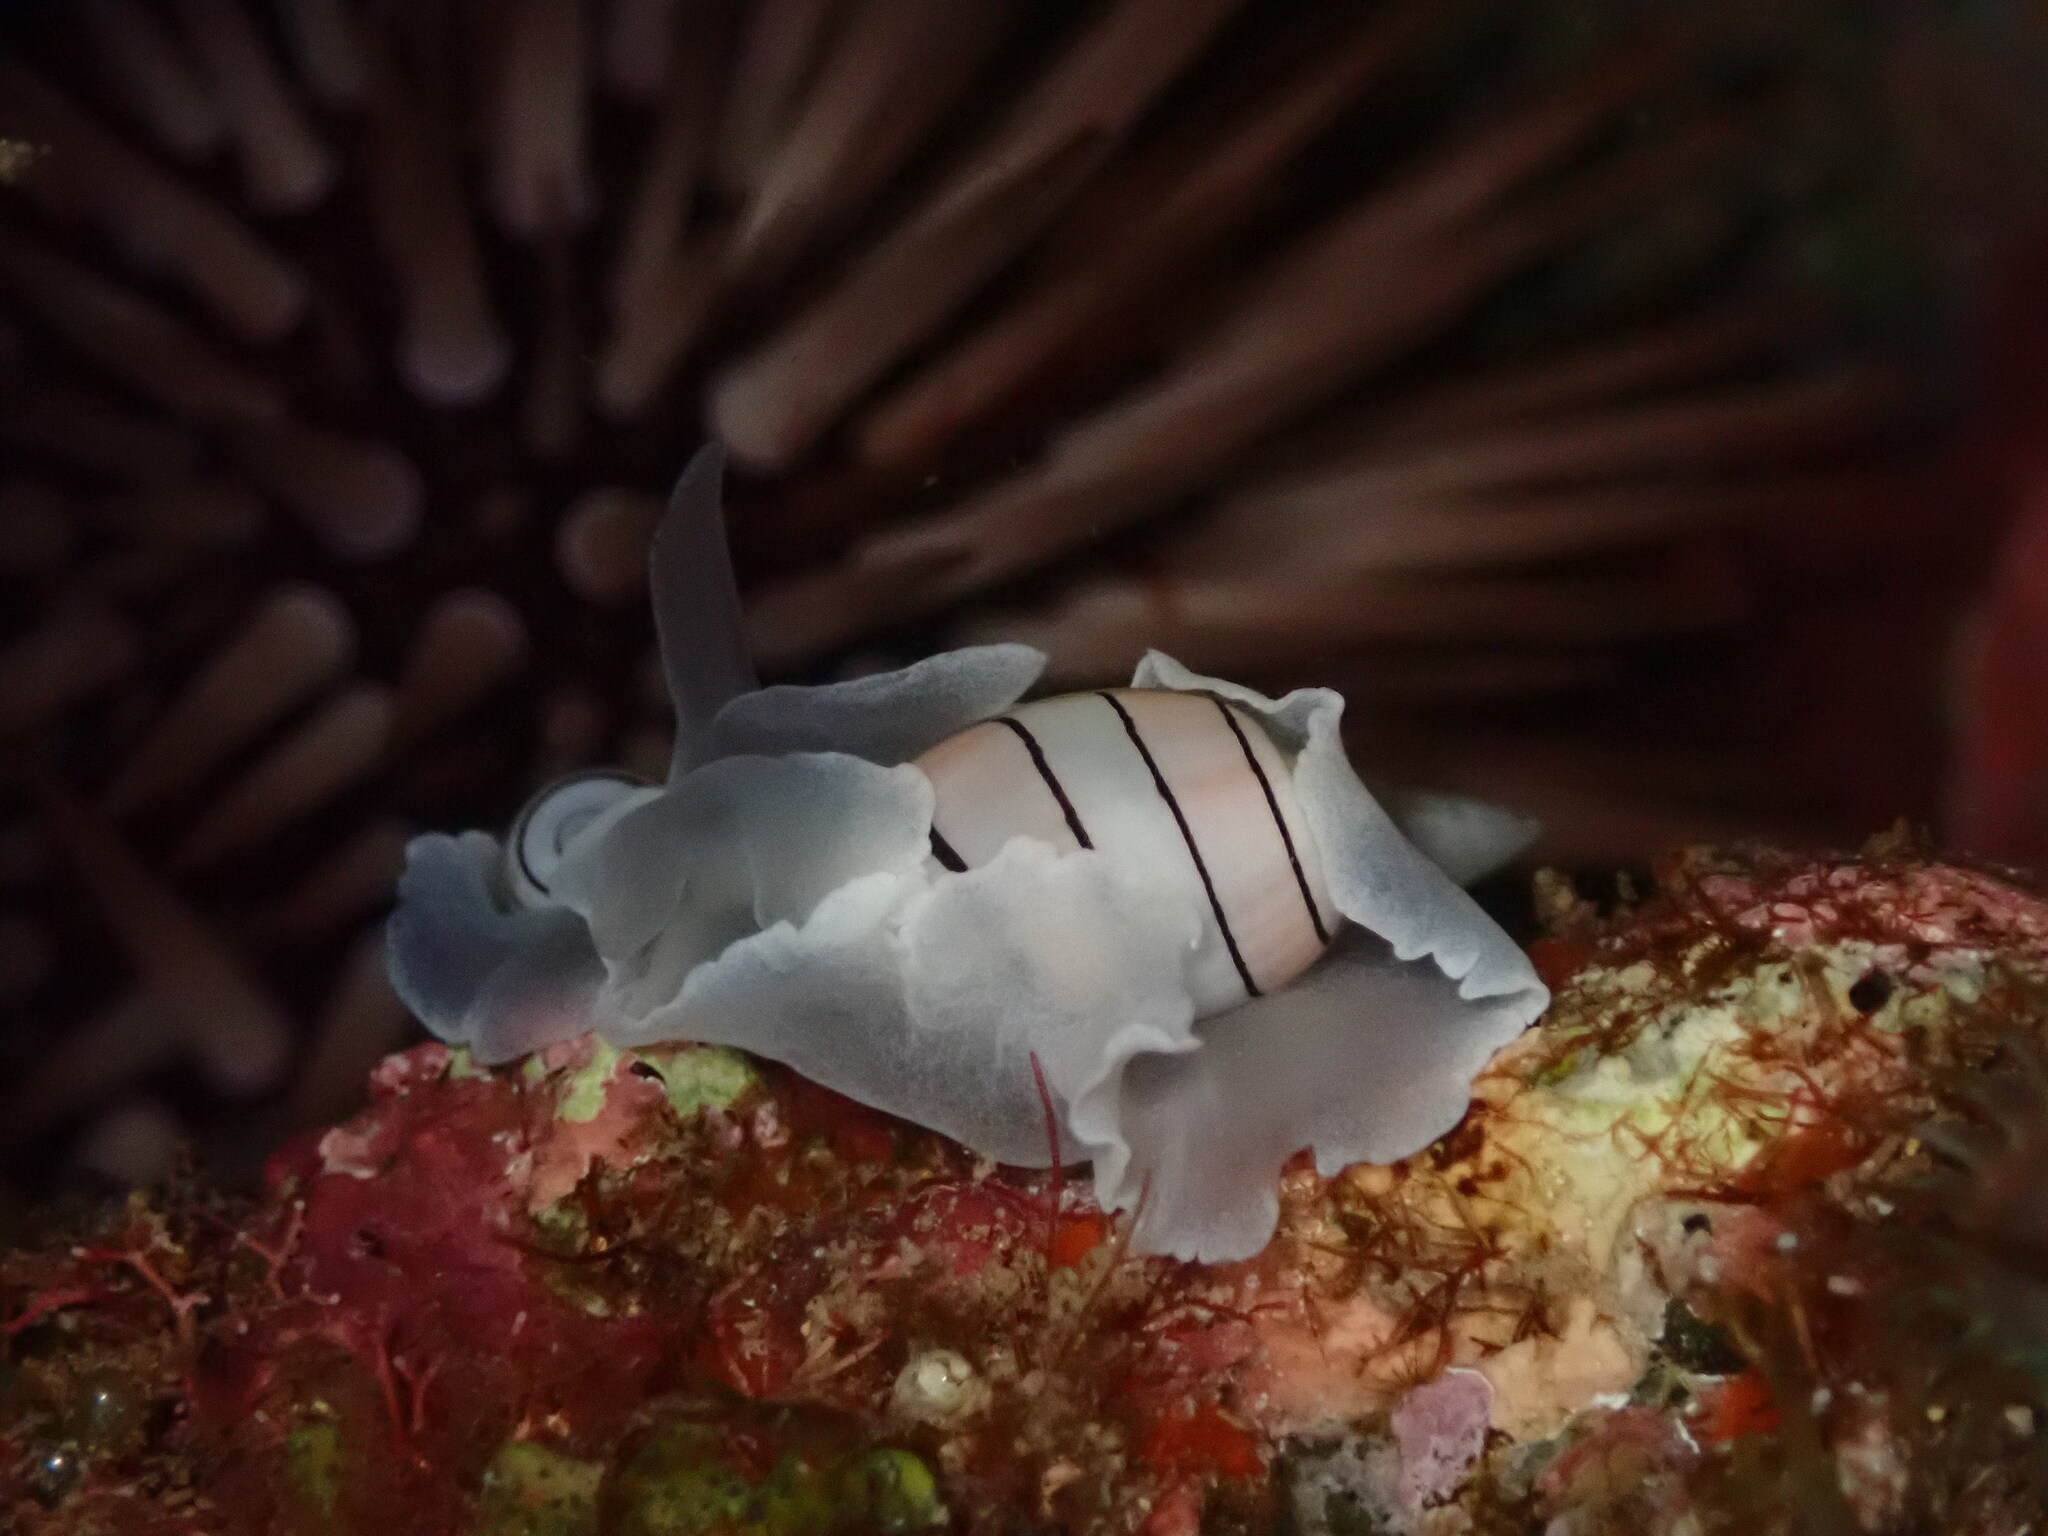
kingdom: Animalia
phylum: Mollusca
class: Gastropoda
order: Cephalaspidea
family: Aplustridae
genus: Aplustrum
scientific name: Aplustrum amplustre
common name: Royal paperbubble
